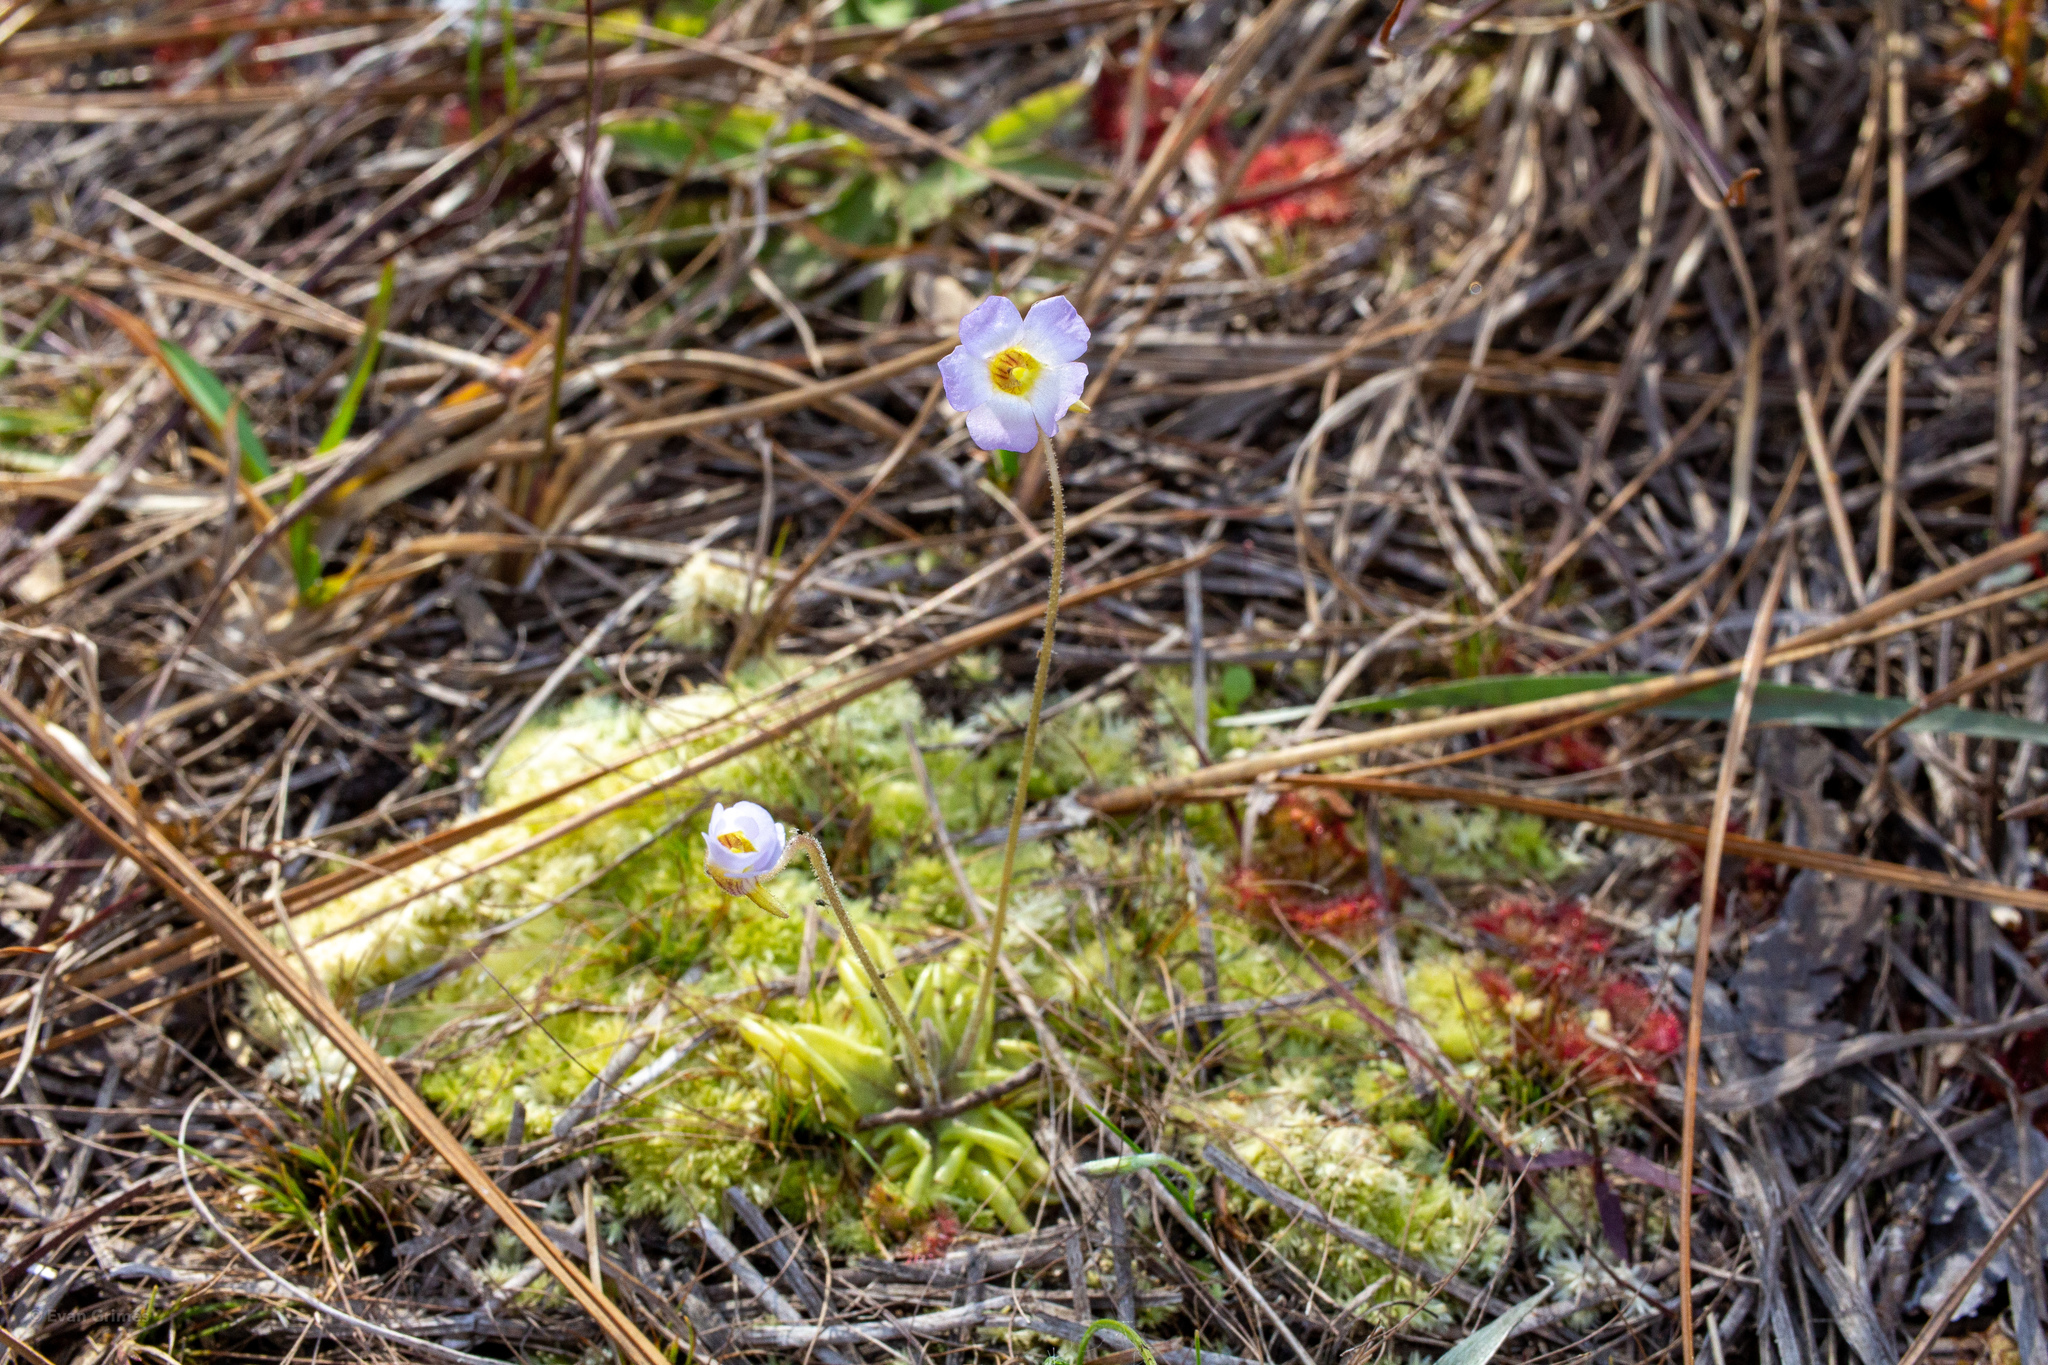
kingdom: Plantae
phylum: Tracheophyta
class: Magnoliopsida
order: Lamiales
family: Lentibulariaceae
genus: Pinguicula
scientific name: Pinguicula pumila
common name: Small butterwort
